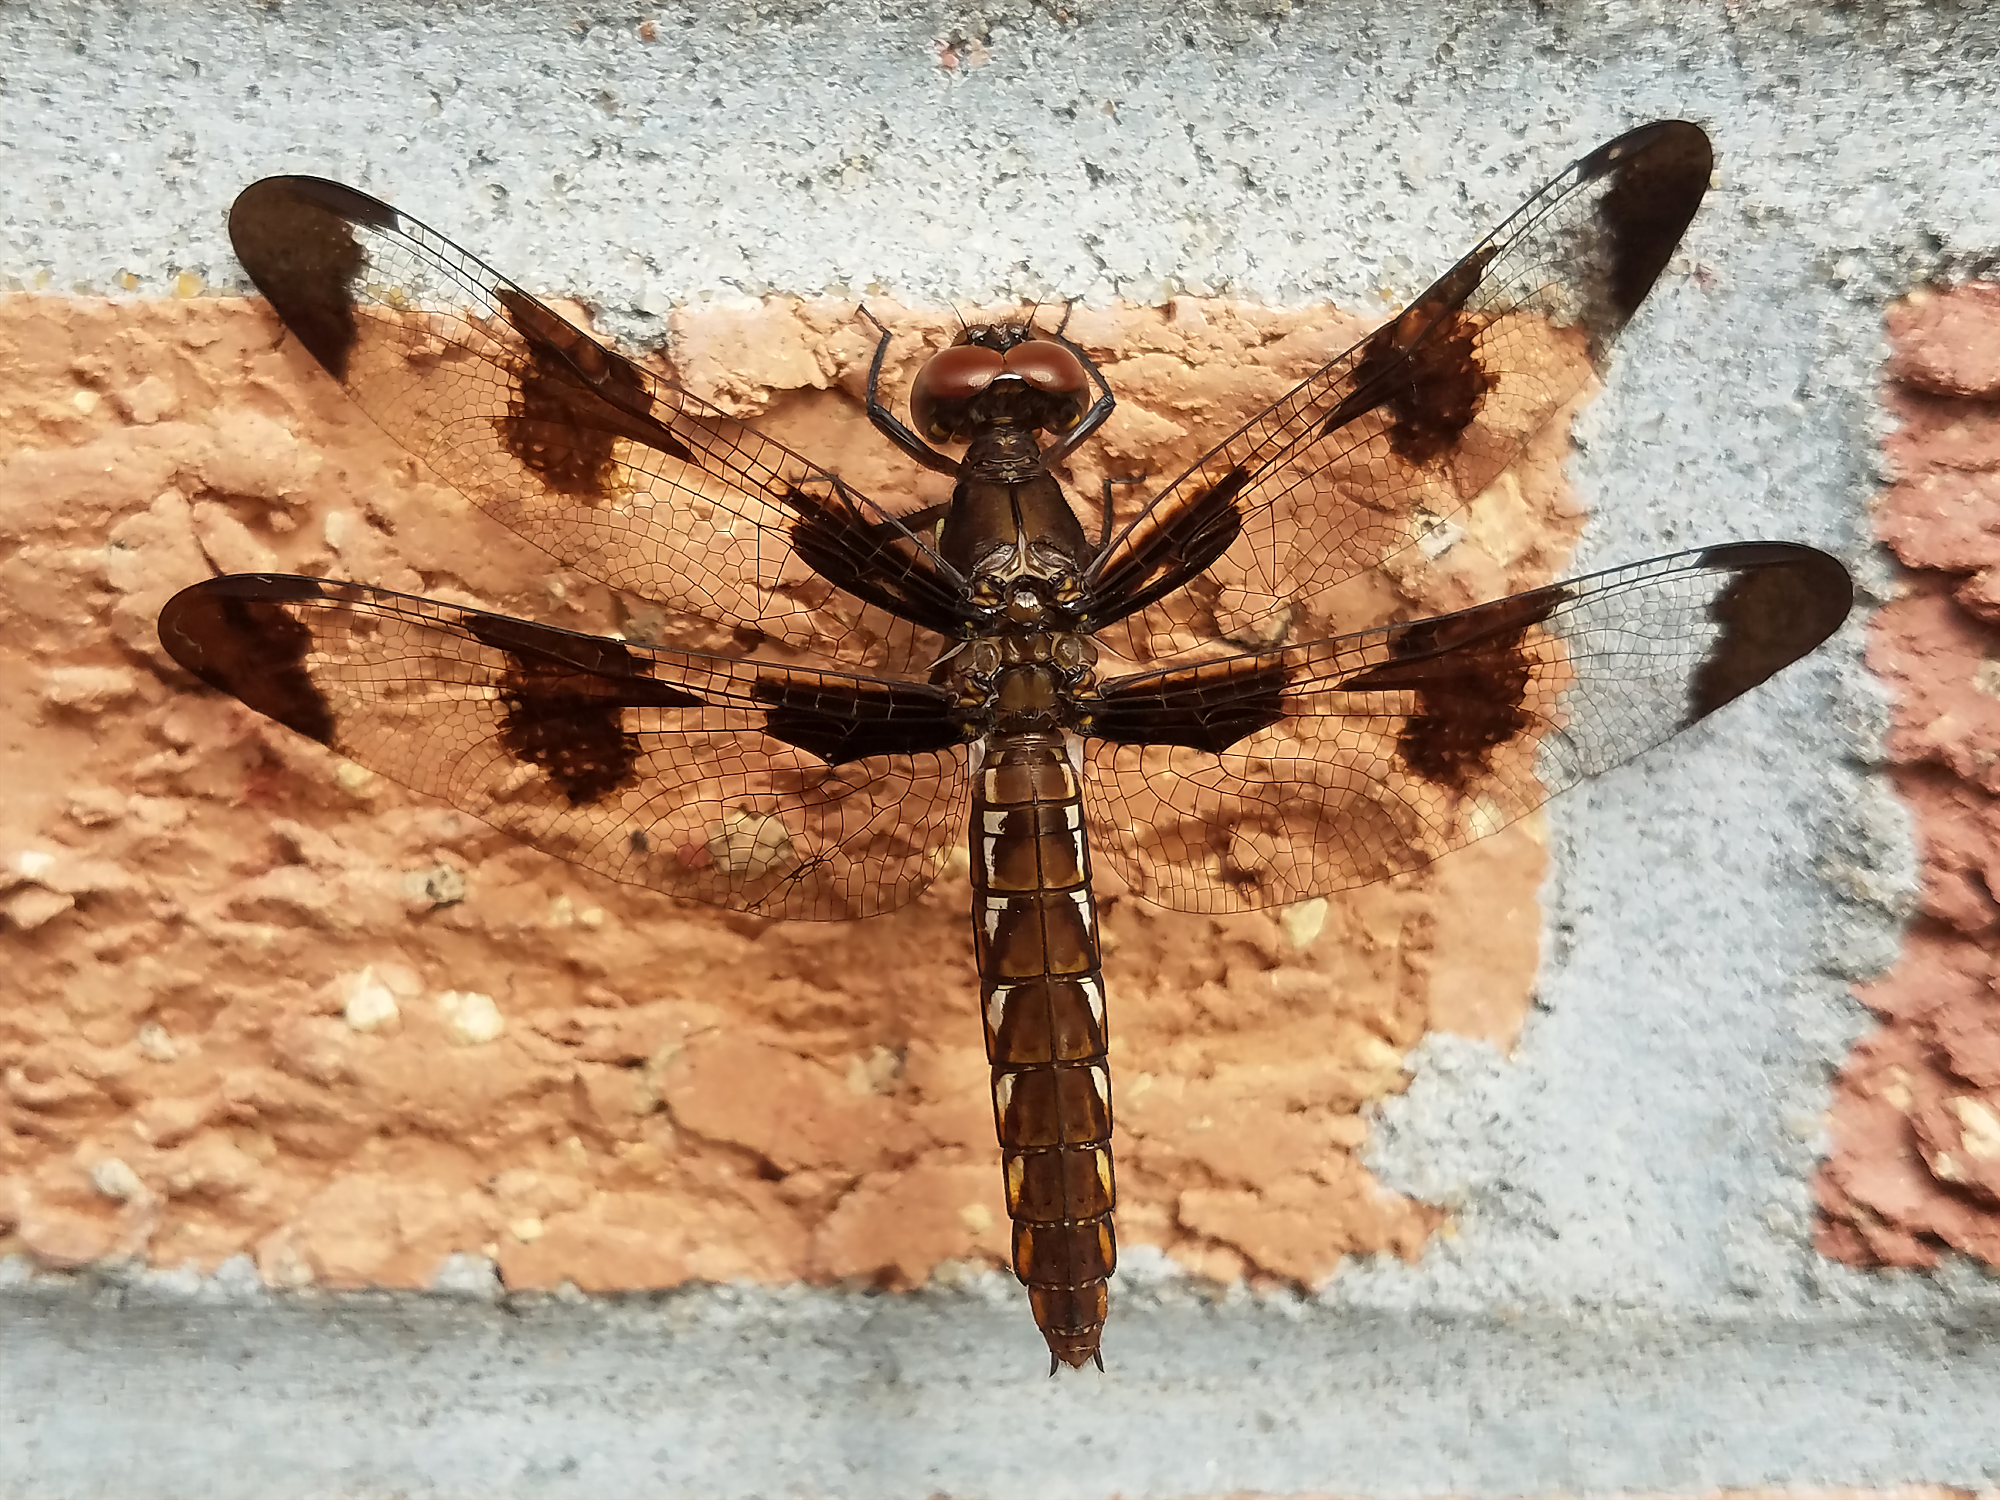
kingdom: Animalia
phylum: Arthropoda
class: Insecta
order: Odonata
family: Libellulidae
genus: Plathemis
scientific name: Plathemis lydia
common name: Common whitetail
